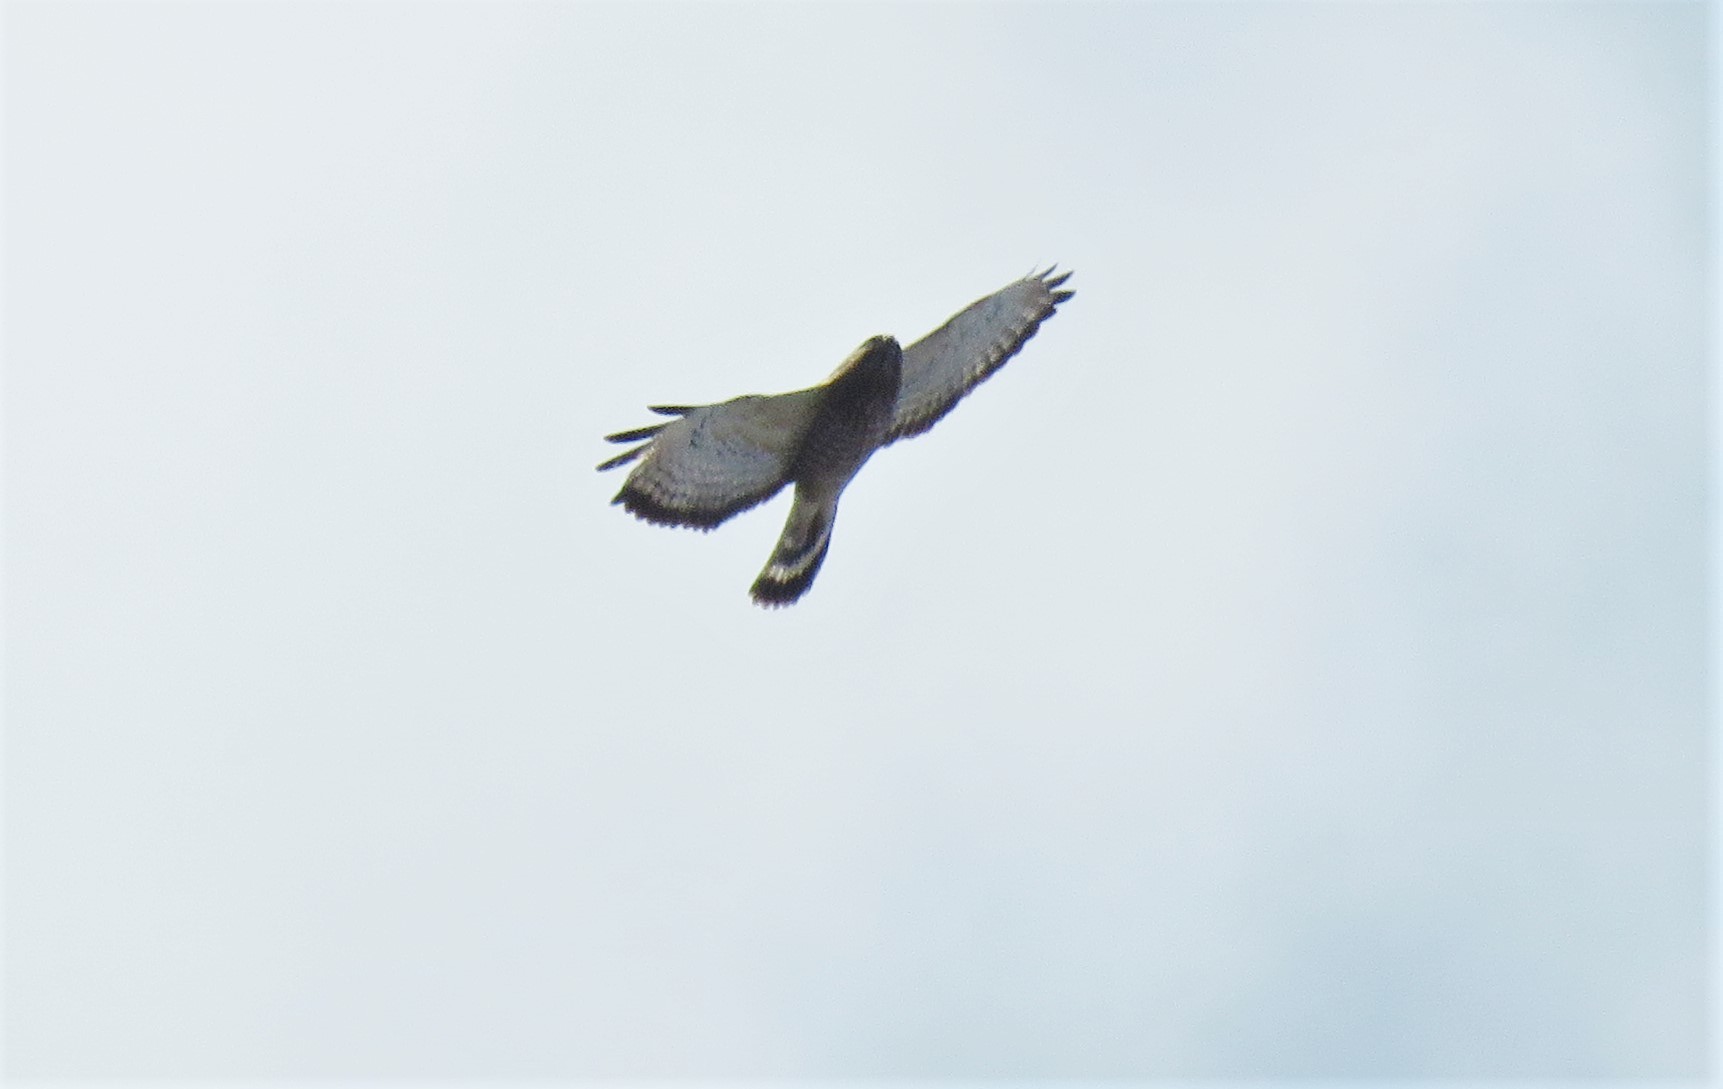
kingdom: Animalia
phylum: Chordata
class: Aves
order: Accipitriformes
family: Accipitridae
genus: Buteo
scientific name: Buteo platypterus
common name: Broad-winged hawk
